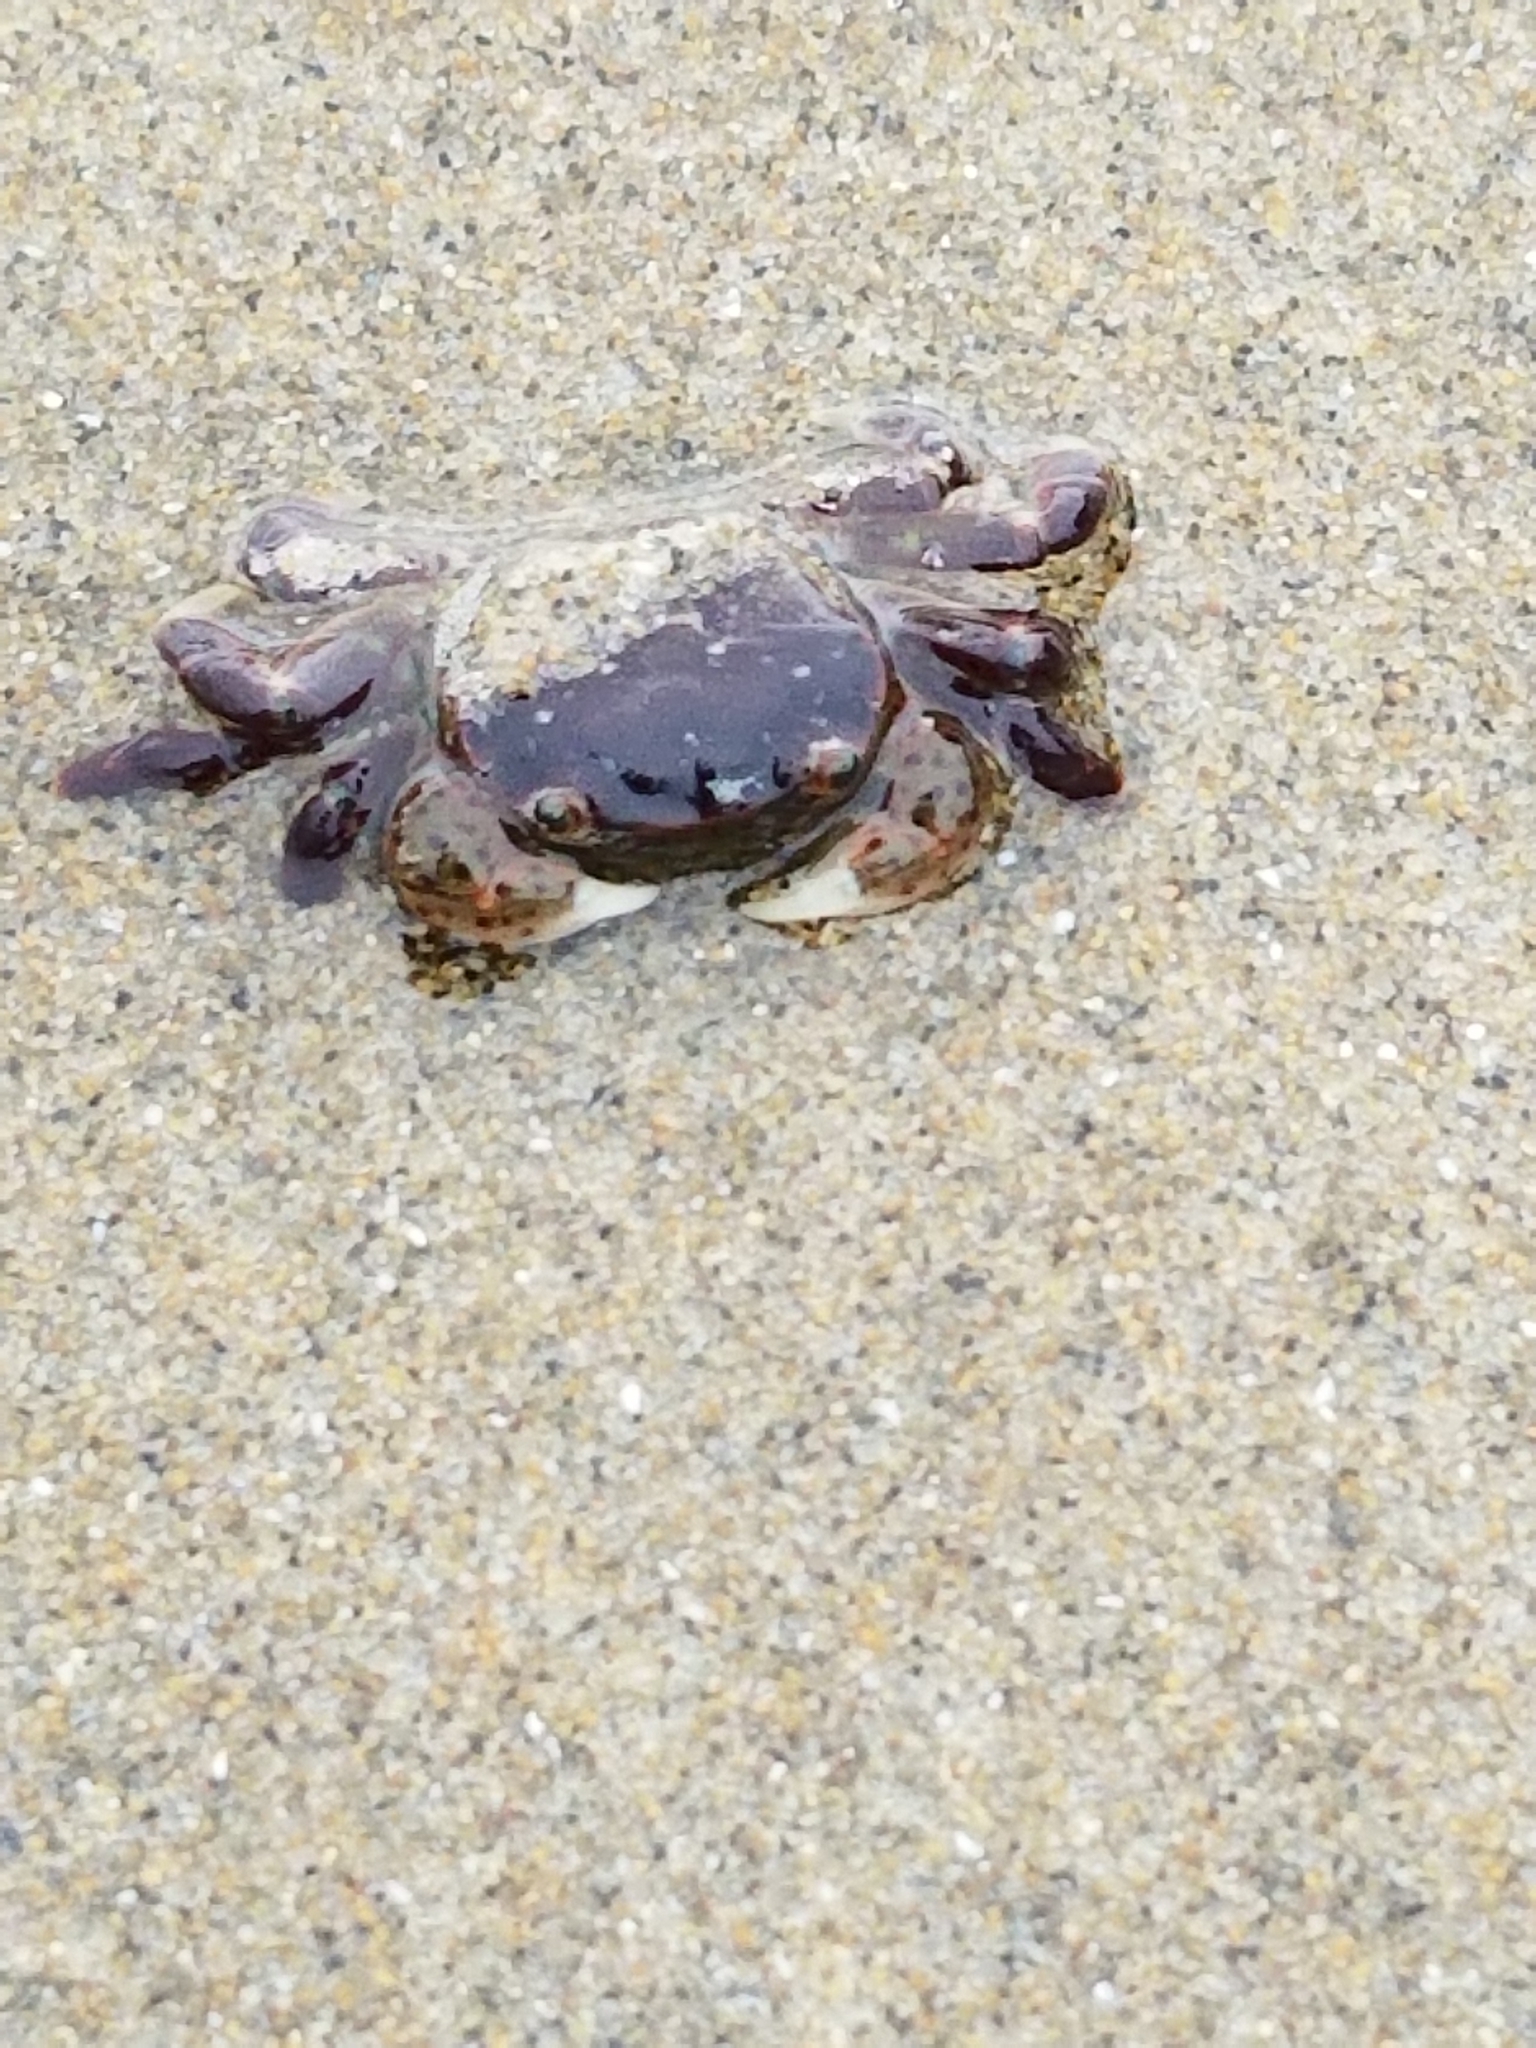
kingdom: Animalia
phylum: Arthropoda
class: Malacostraca
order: Decapoda
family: Varunidae
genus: Hemigrapsus
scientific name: Hemigrapsus nudus
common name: Purple shore crab
